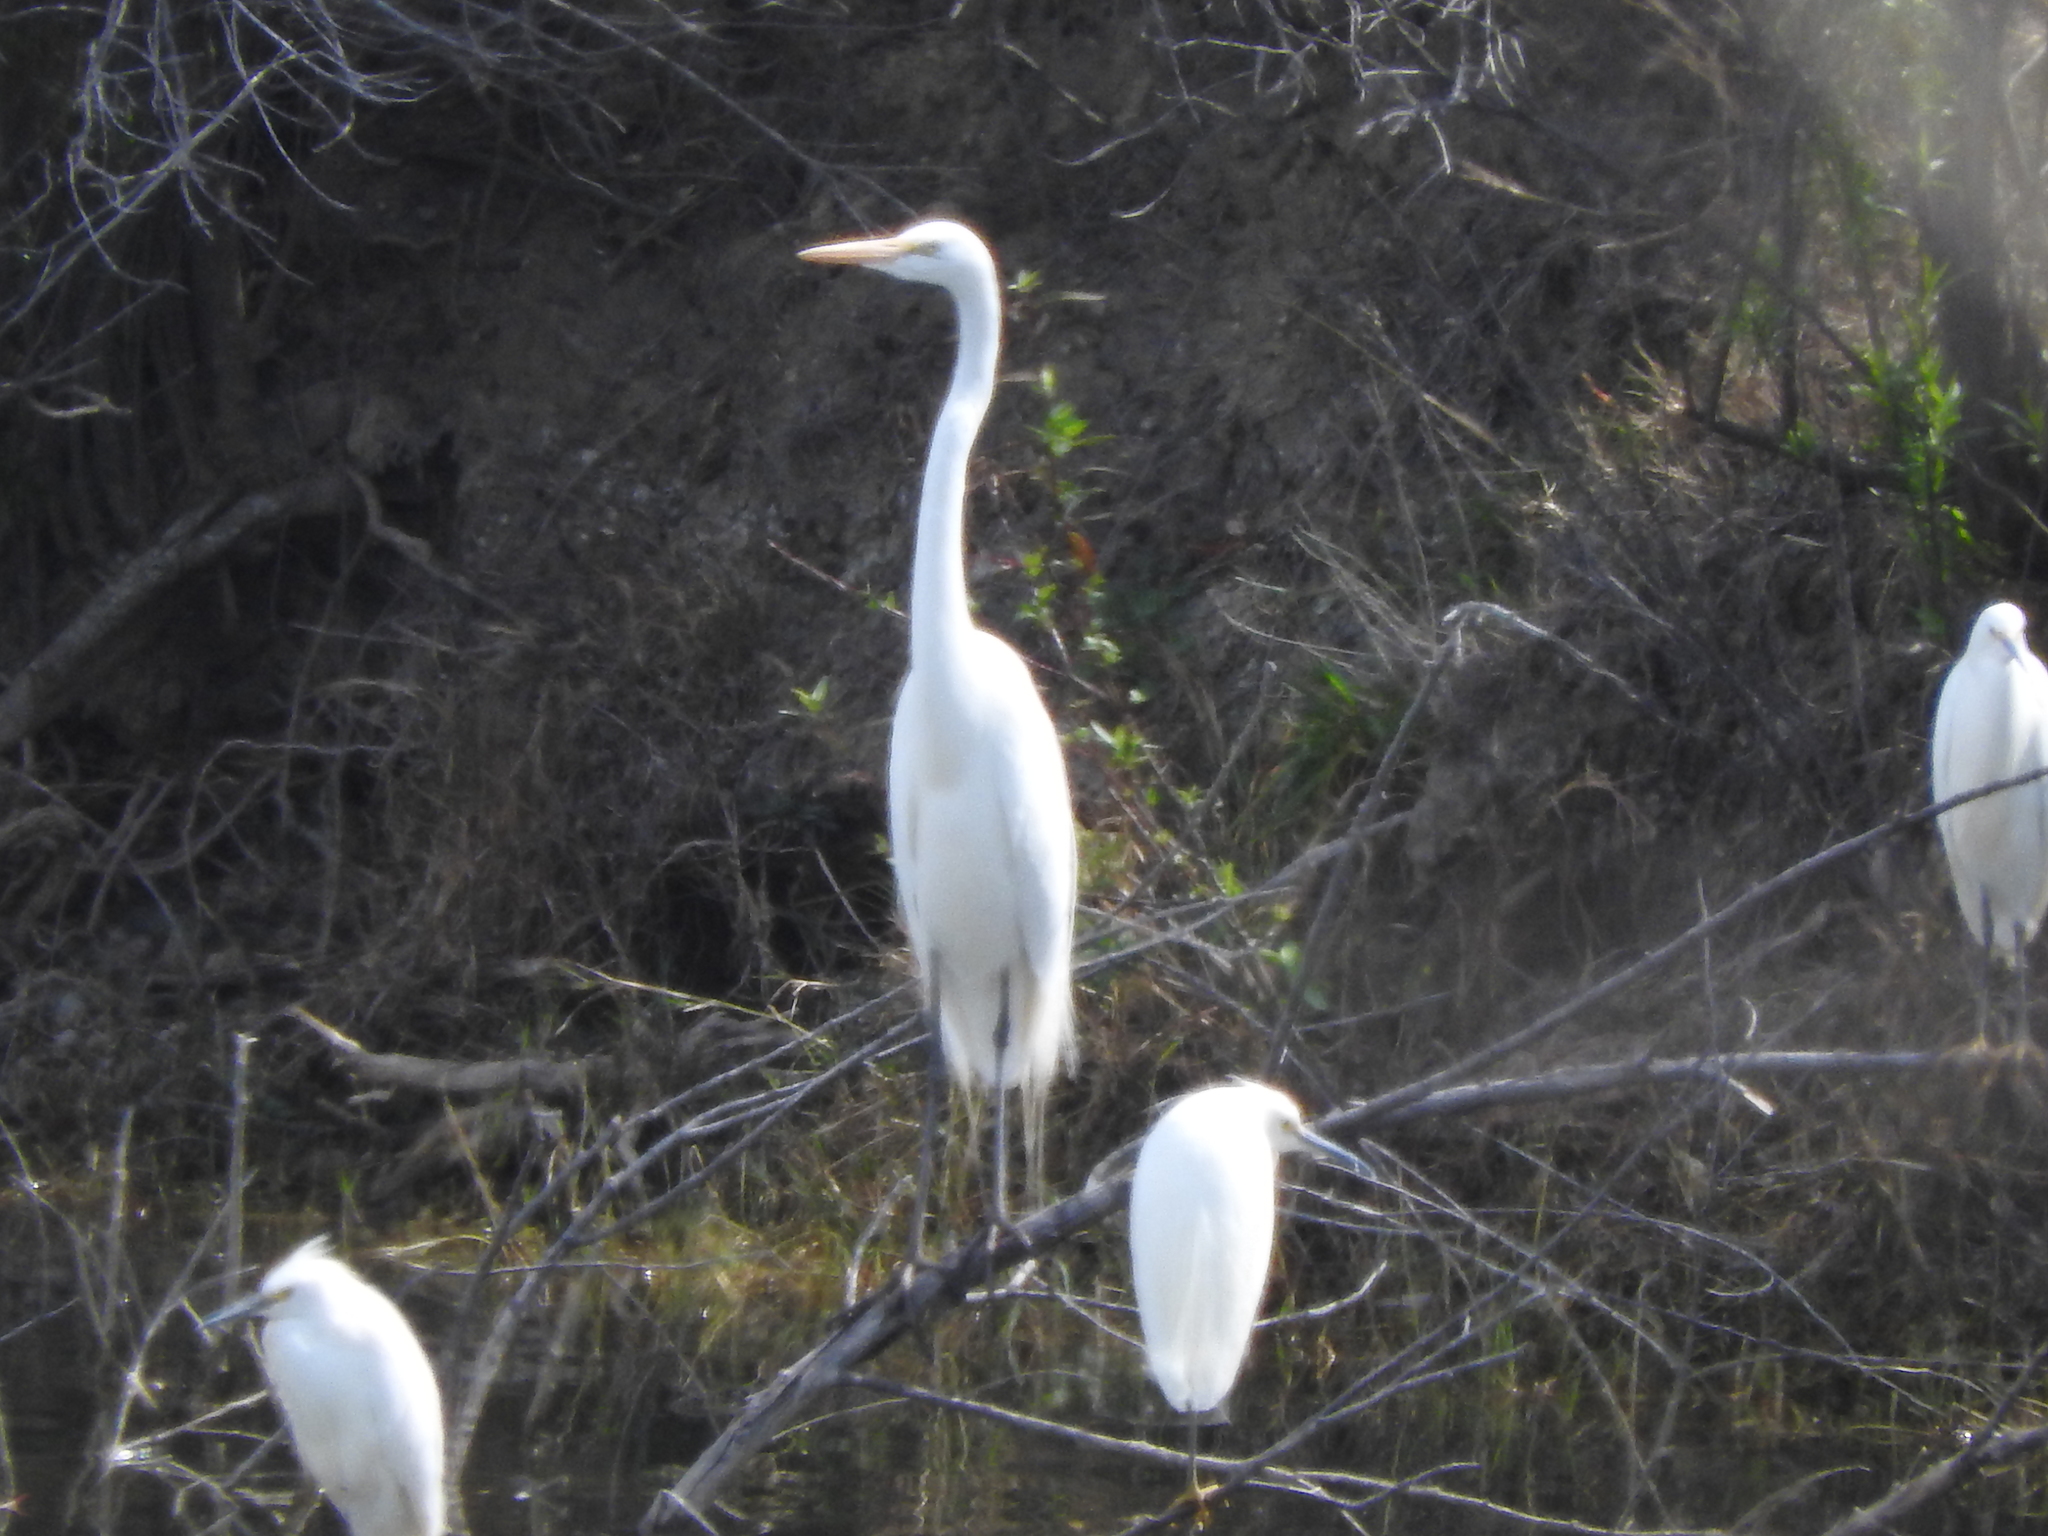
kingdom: Animalia
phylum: Chordata
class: Aves
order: Pelecaniformes
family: Ardeidae
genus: Ardea
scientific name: Ardea alba
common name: Great egret
